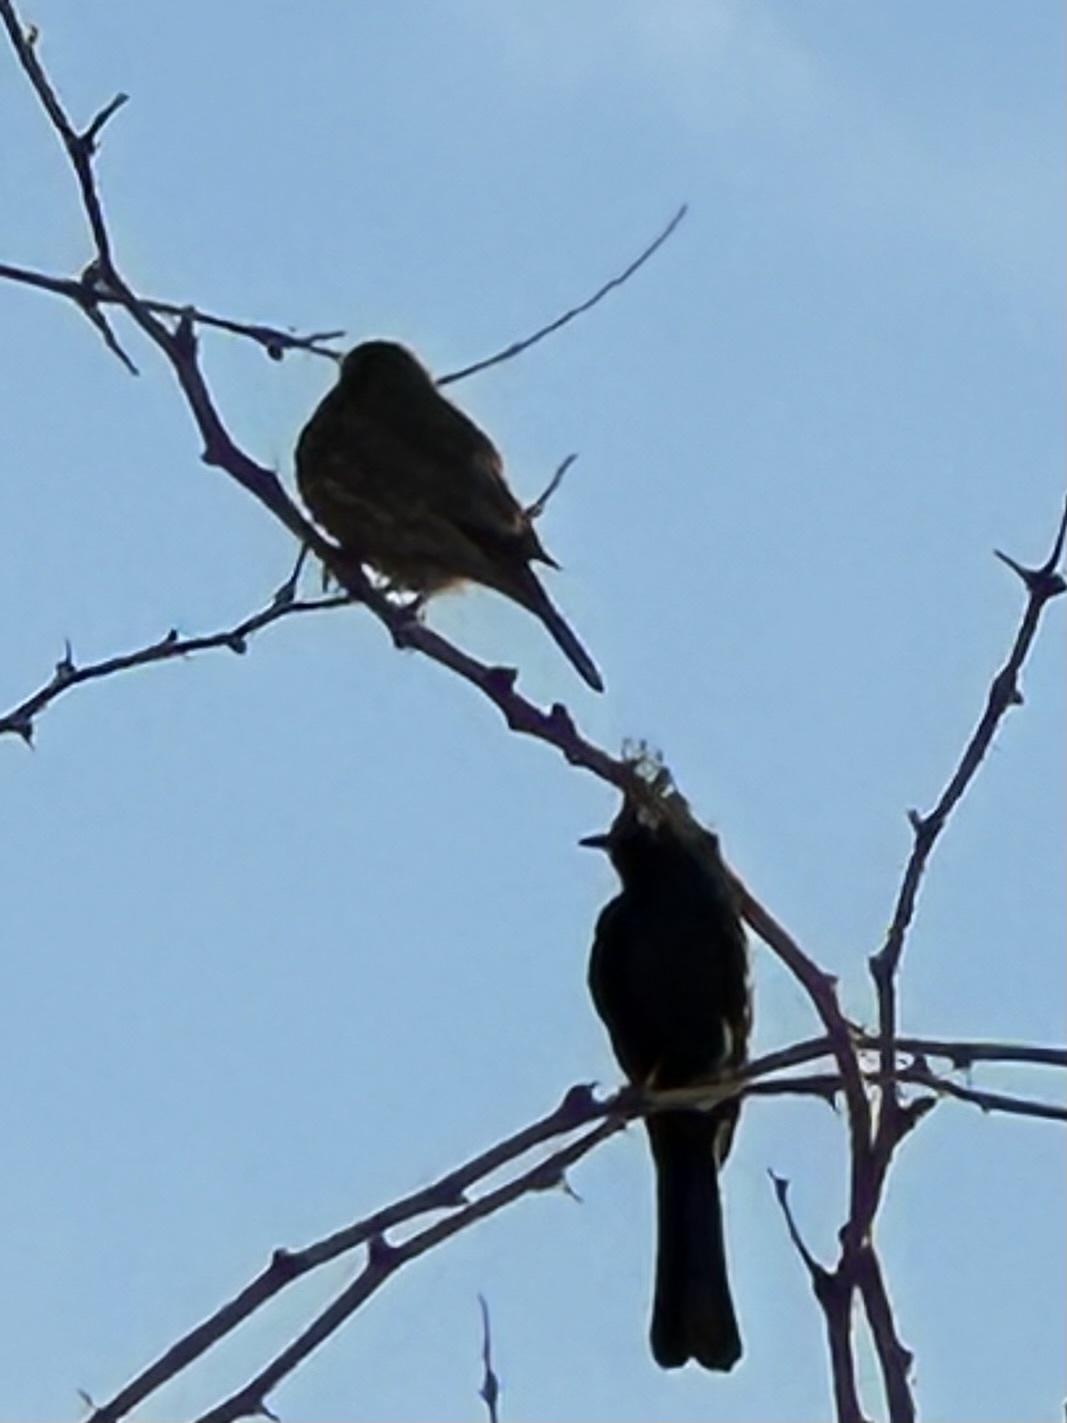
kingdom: Animalia
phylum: Chordata
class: Aves
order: Passeriformes
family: Ptilogonatidae
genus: Phainopepla
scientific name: Phainopepla nitens
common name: Phainopepla
